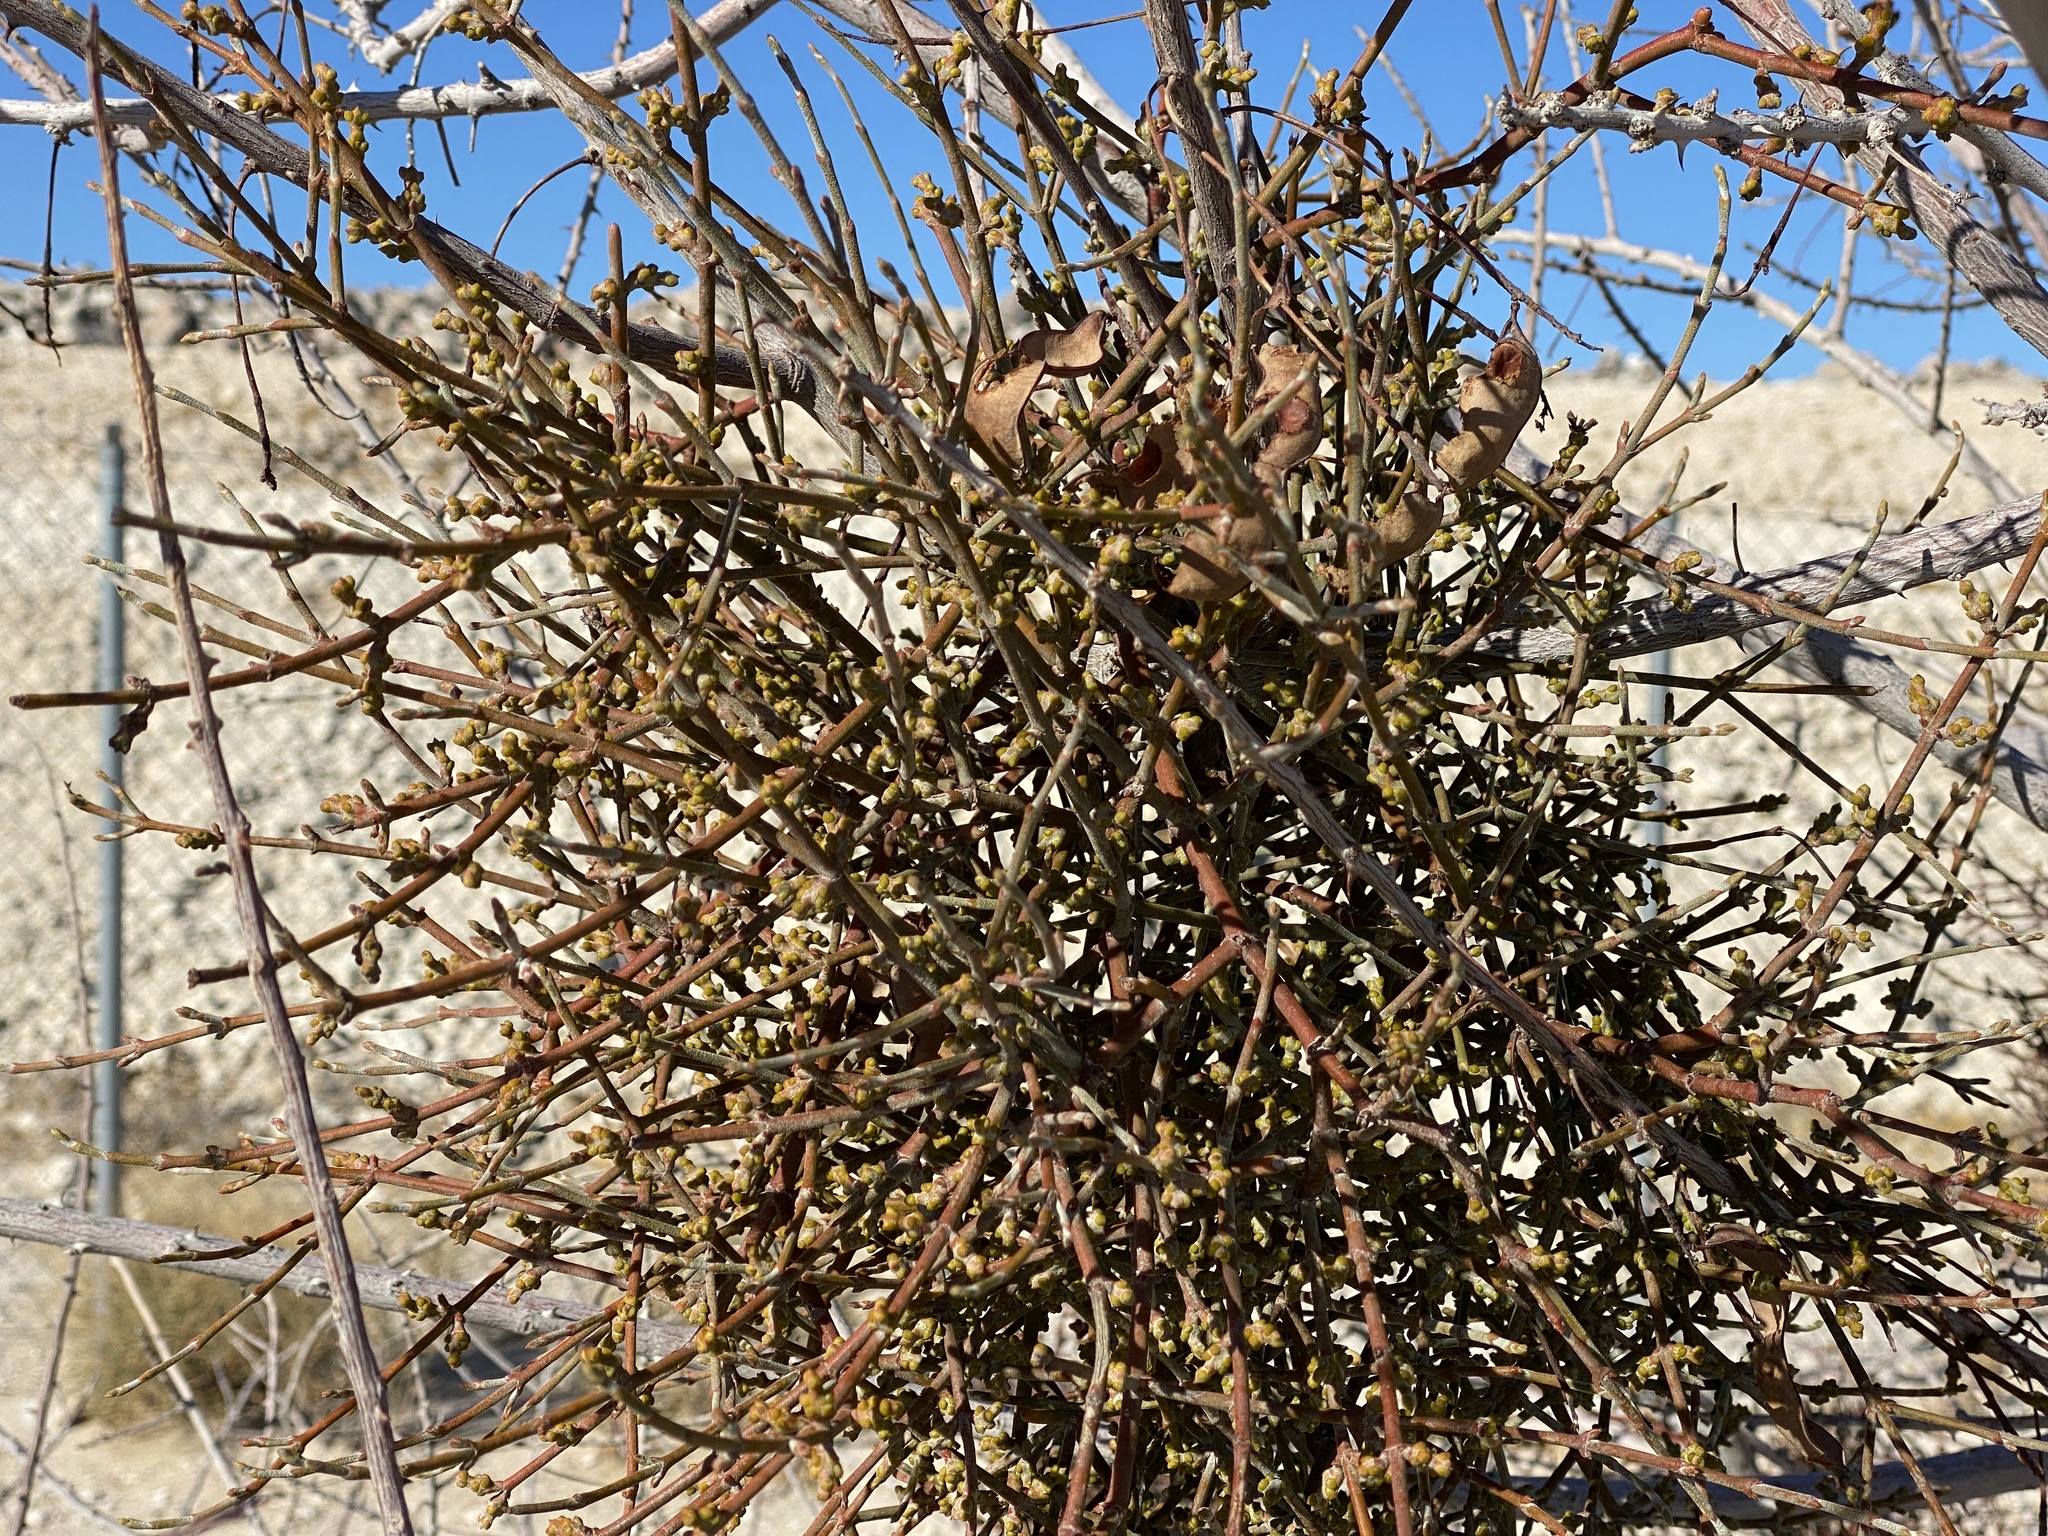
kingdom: Plantae
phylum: Tracheophyta
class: Magnoliopsida
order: Santalales
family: Viscaceae
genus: Phoradendron
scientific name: Phoradendron californicum
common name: Acacia mistletoe
